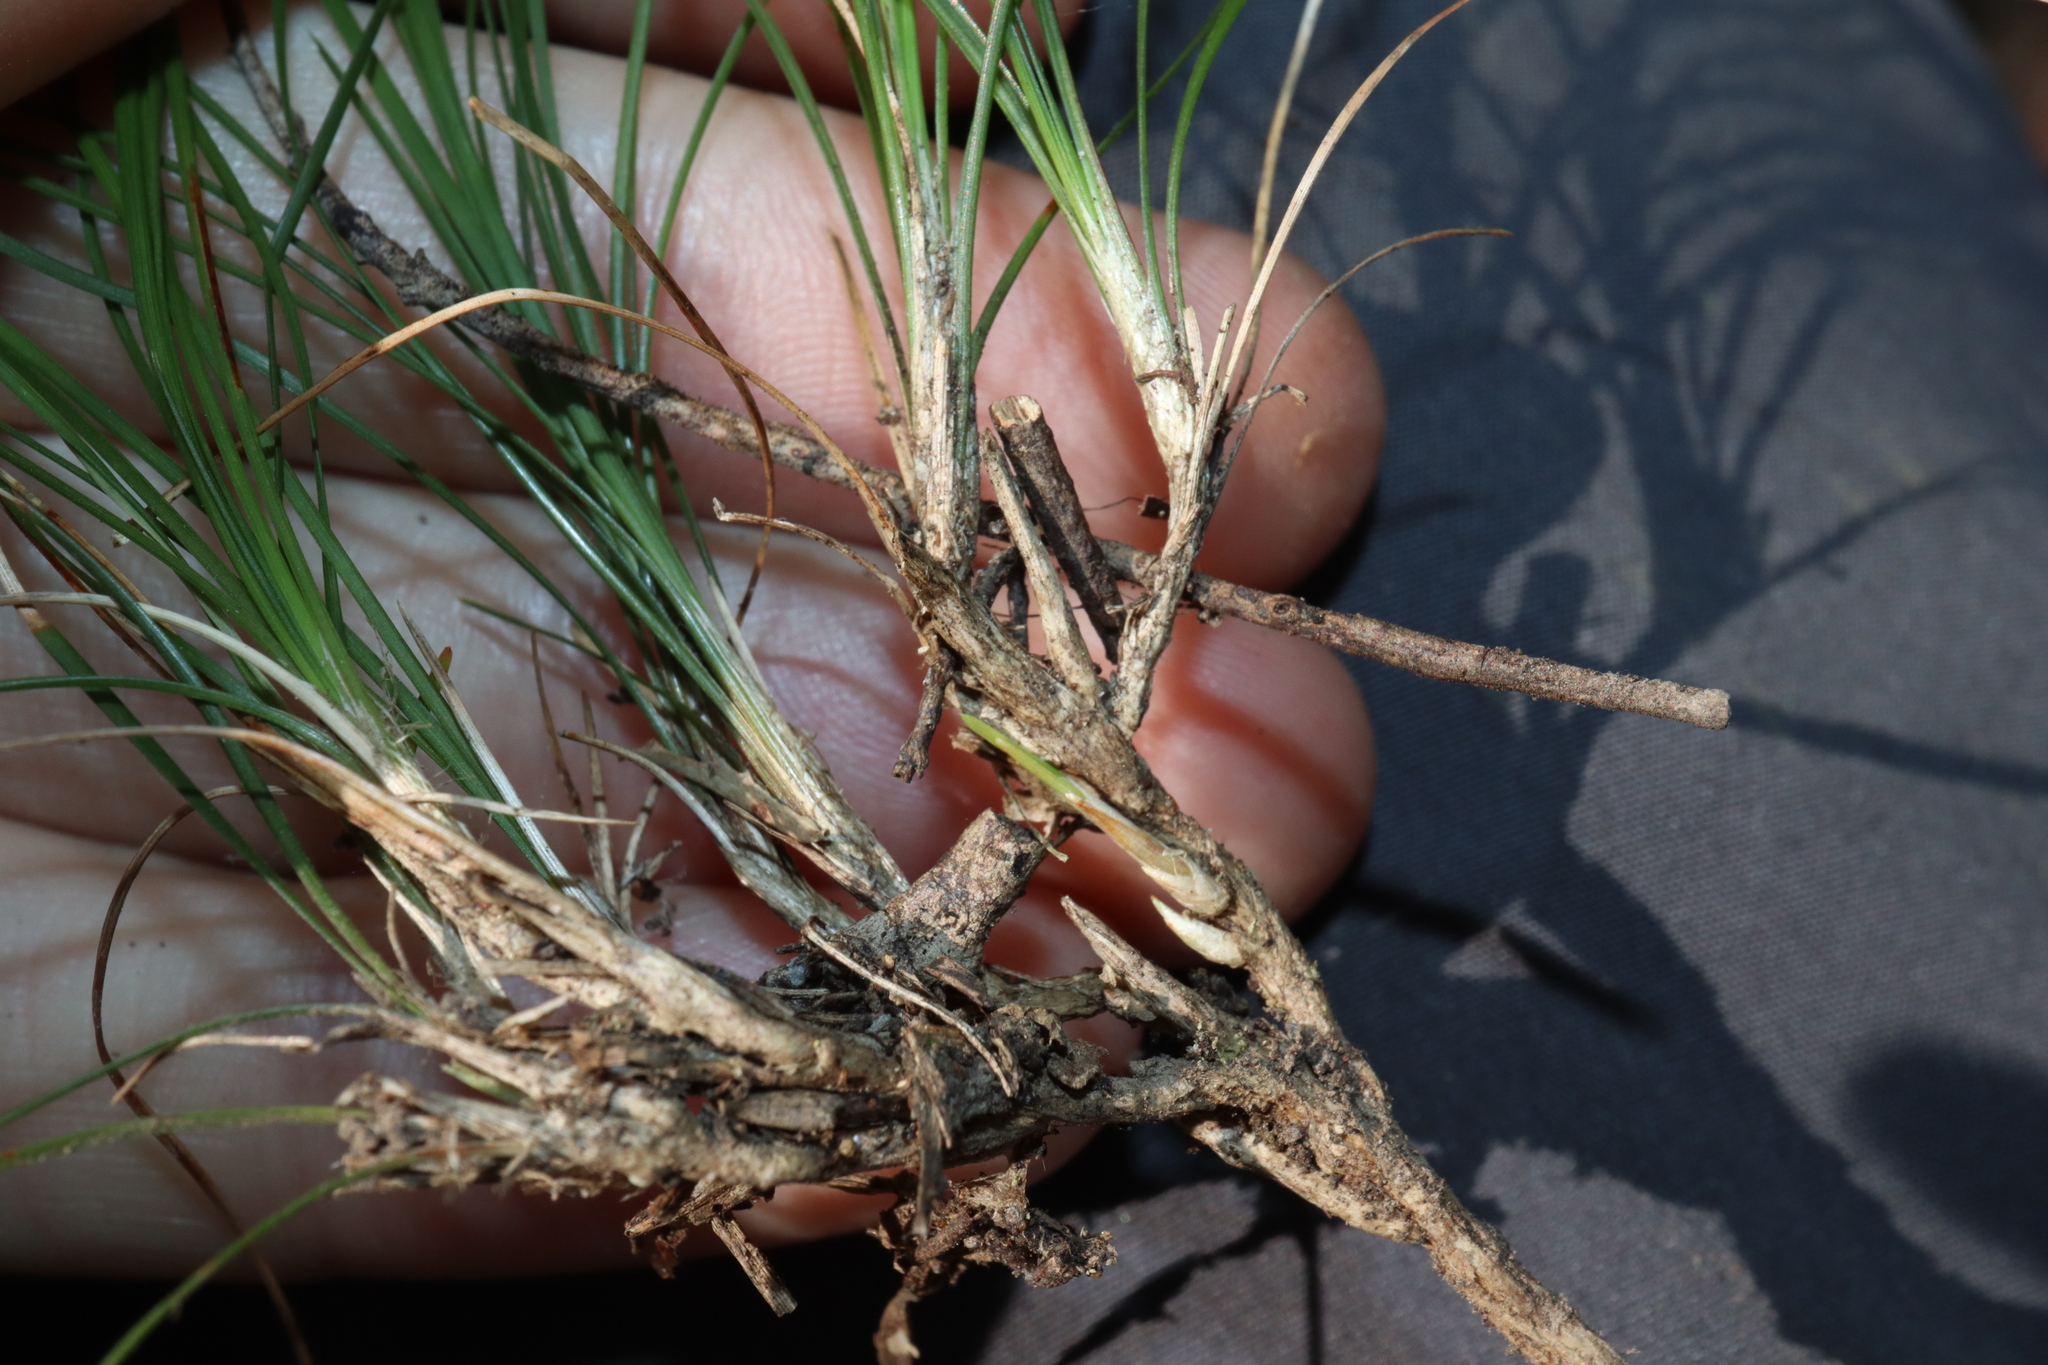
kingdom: Plantae
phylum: Tracheophyta
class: Liliopsida
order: Asparagales
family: Asparagaceae
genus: Lomandra
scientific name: Lomandra filiformis
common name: Wattle mat-rush
